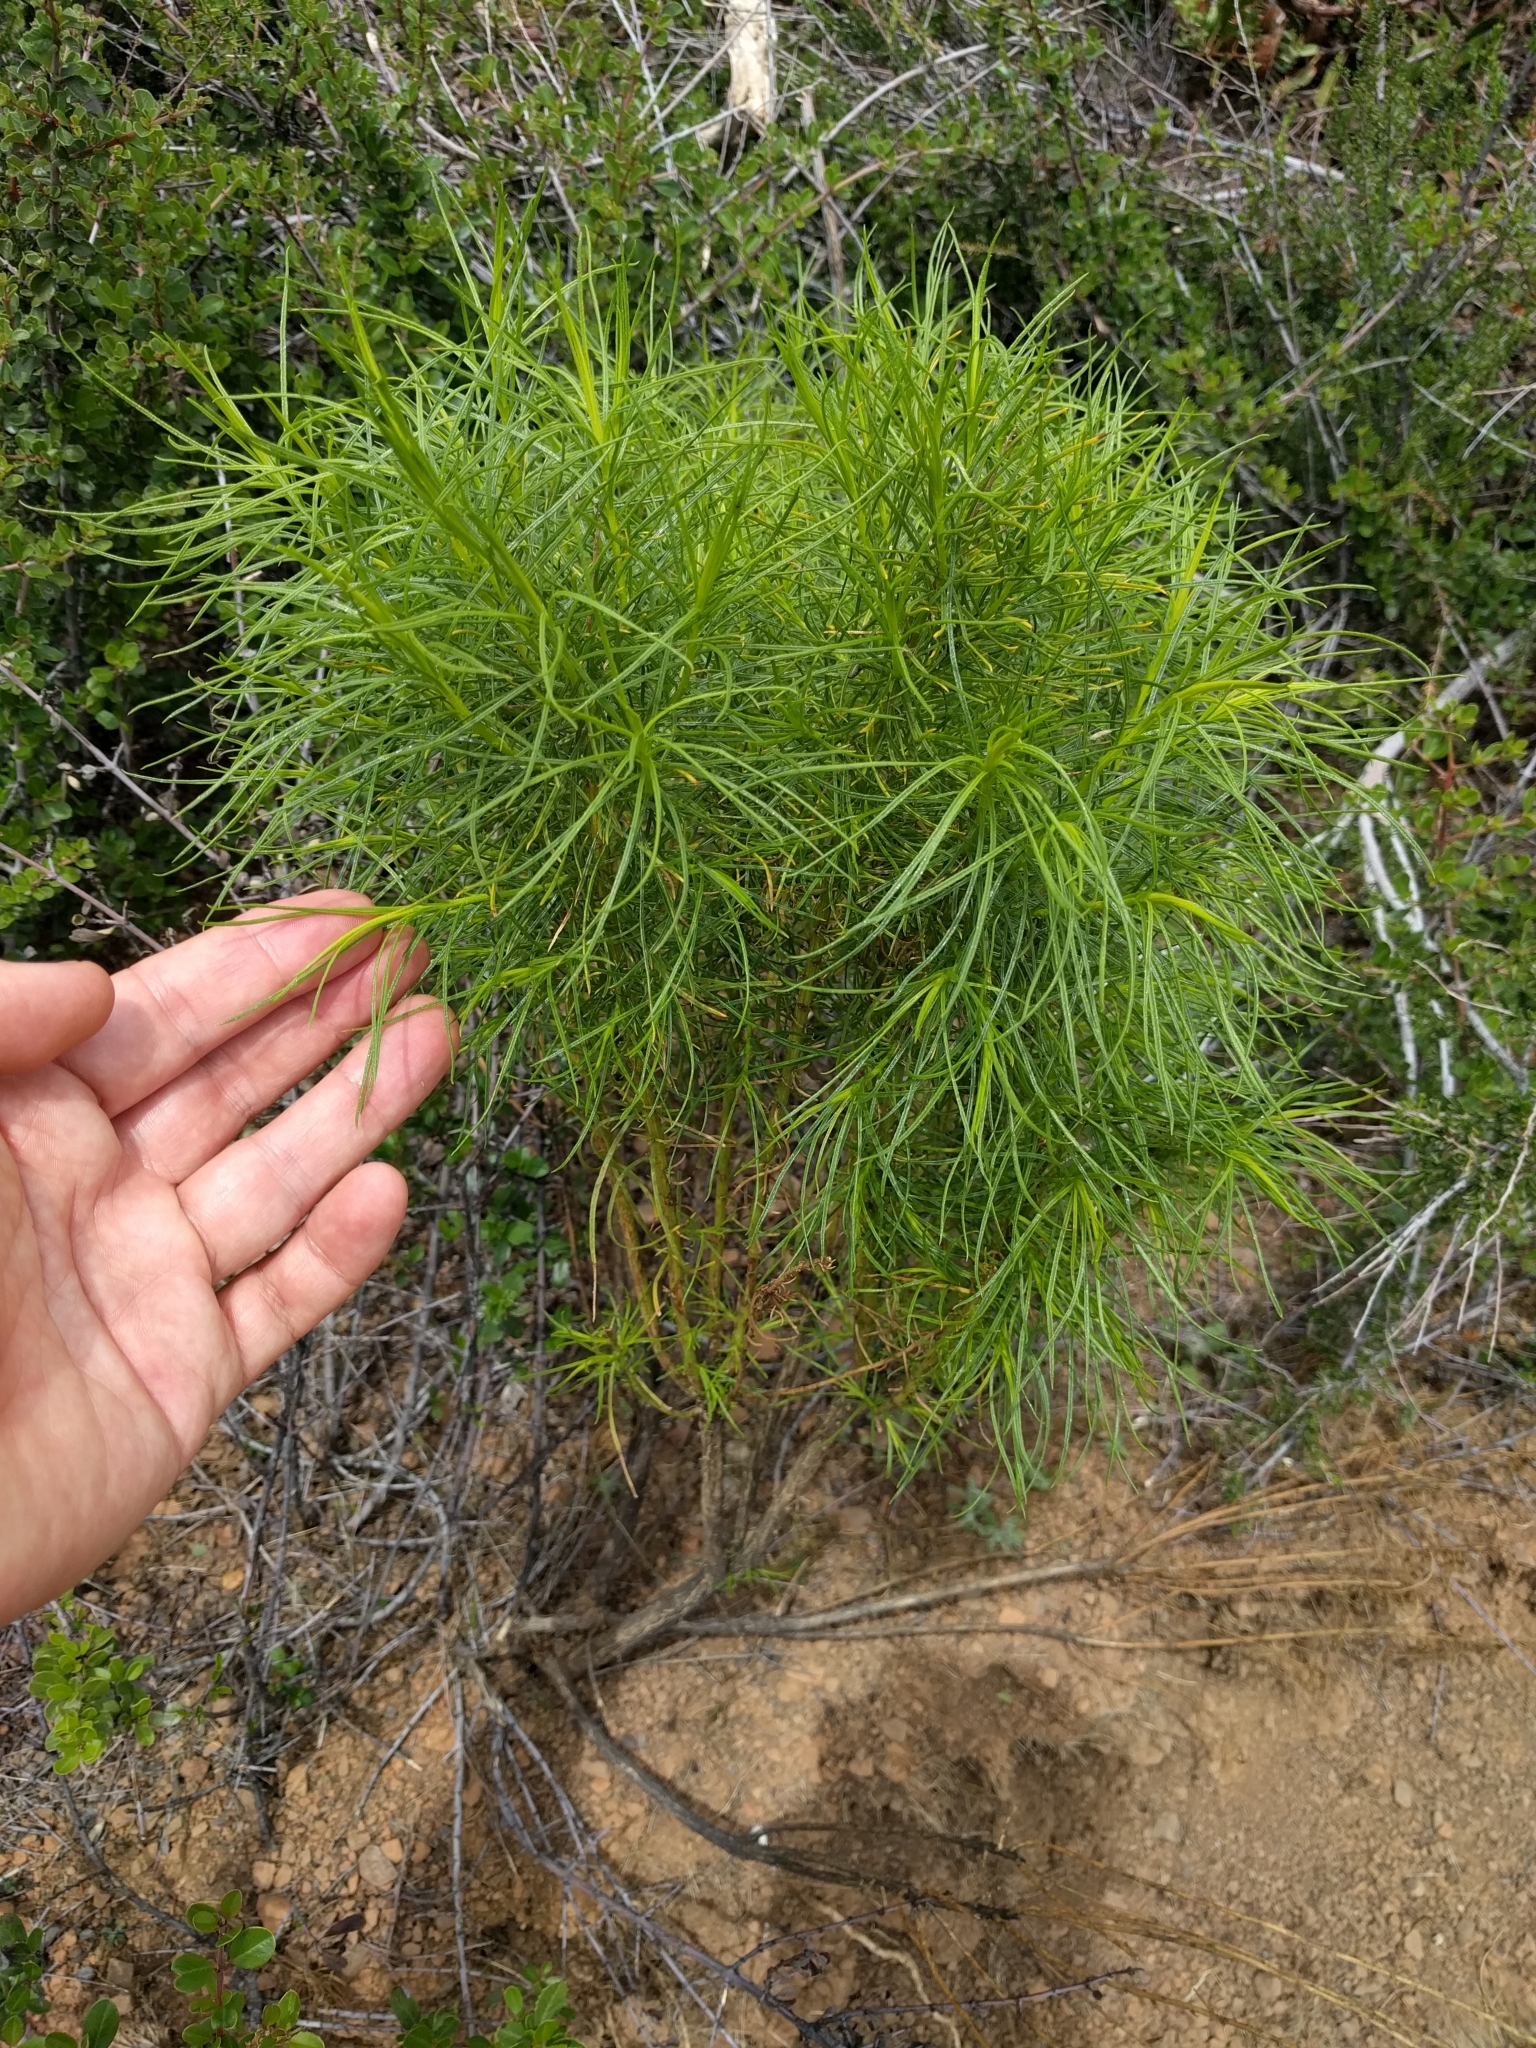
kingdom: Plantae
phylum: Tracheophyta
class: Magnoliopsida
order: Asterales
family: Asteraceae
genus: Ericameria
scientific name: Ericameria arborescens
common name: Goldenfleece
